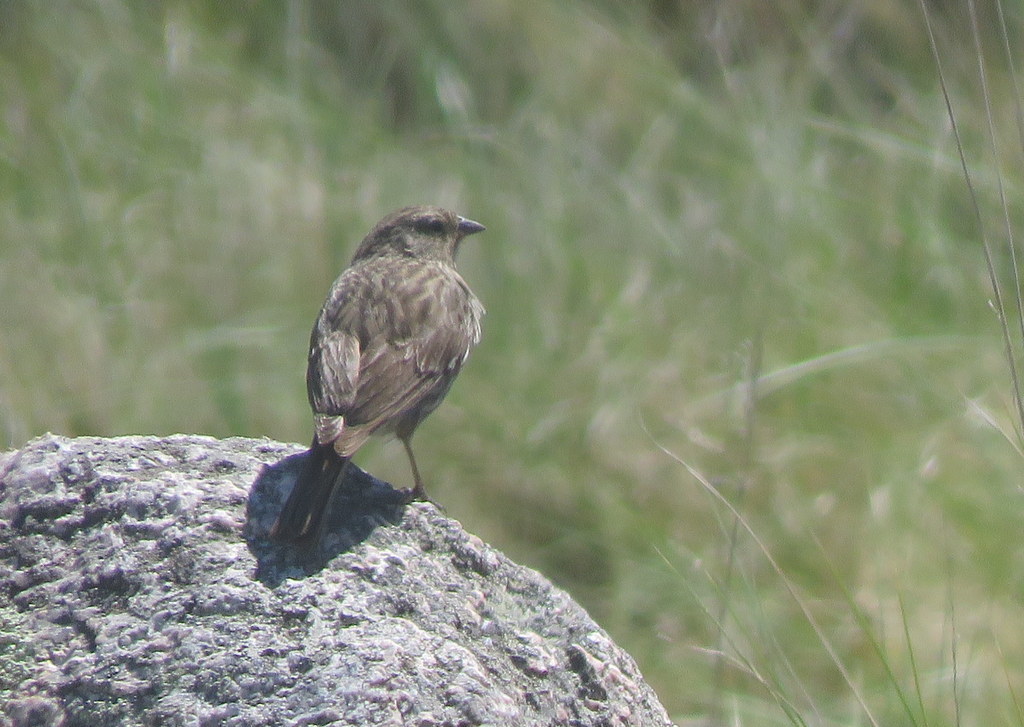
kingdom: Animalia
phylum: Chordata
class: Aves
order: Passeriformes
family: Thraupidae
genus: Geospizopsis
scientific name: Geospizopsis plebejus
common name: Ash-breasted sierra-finch
